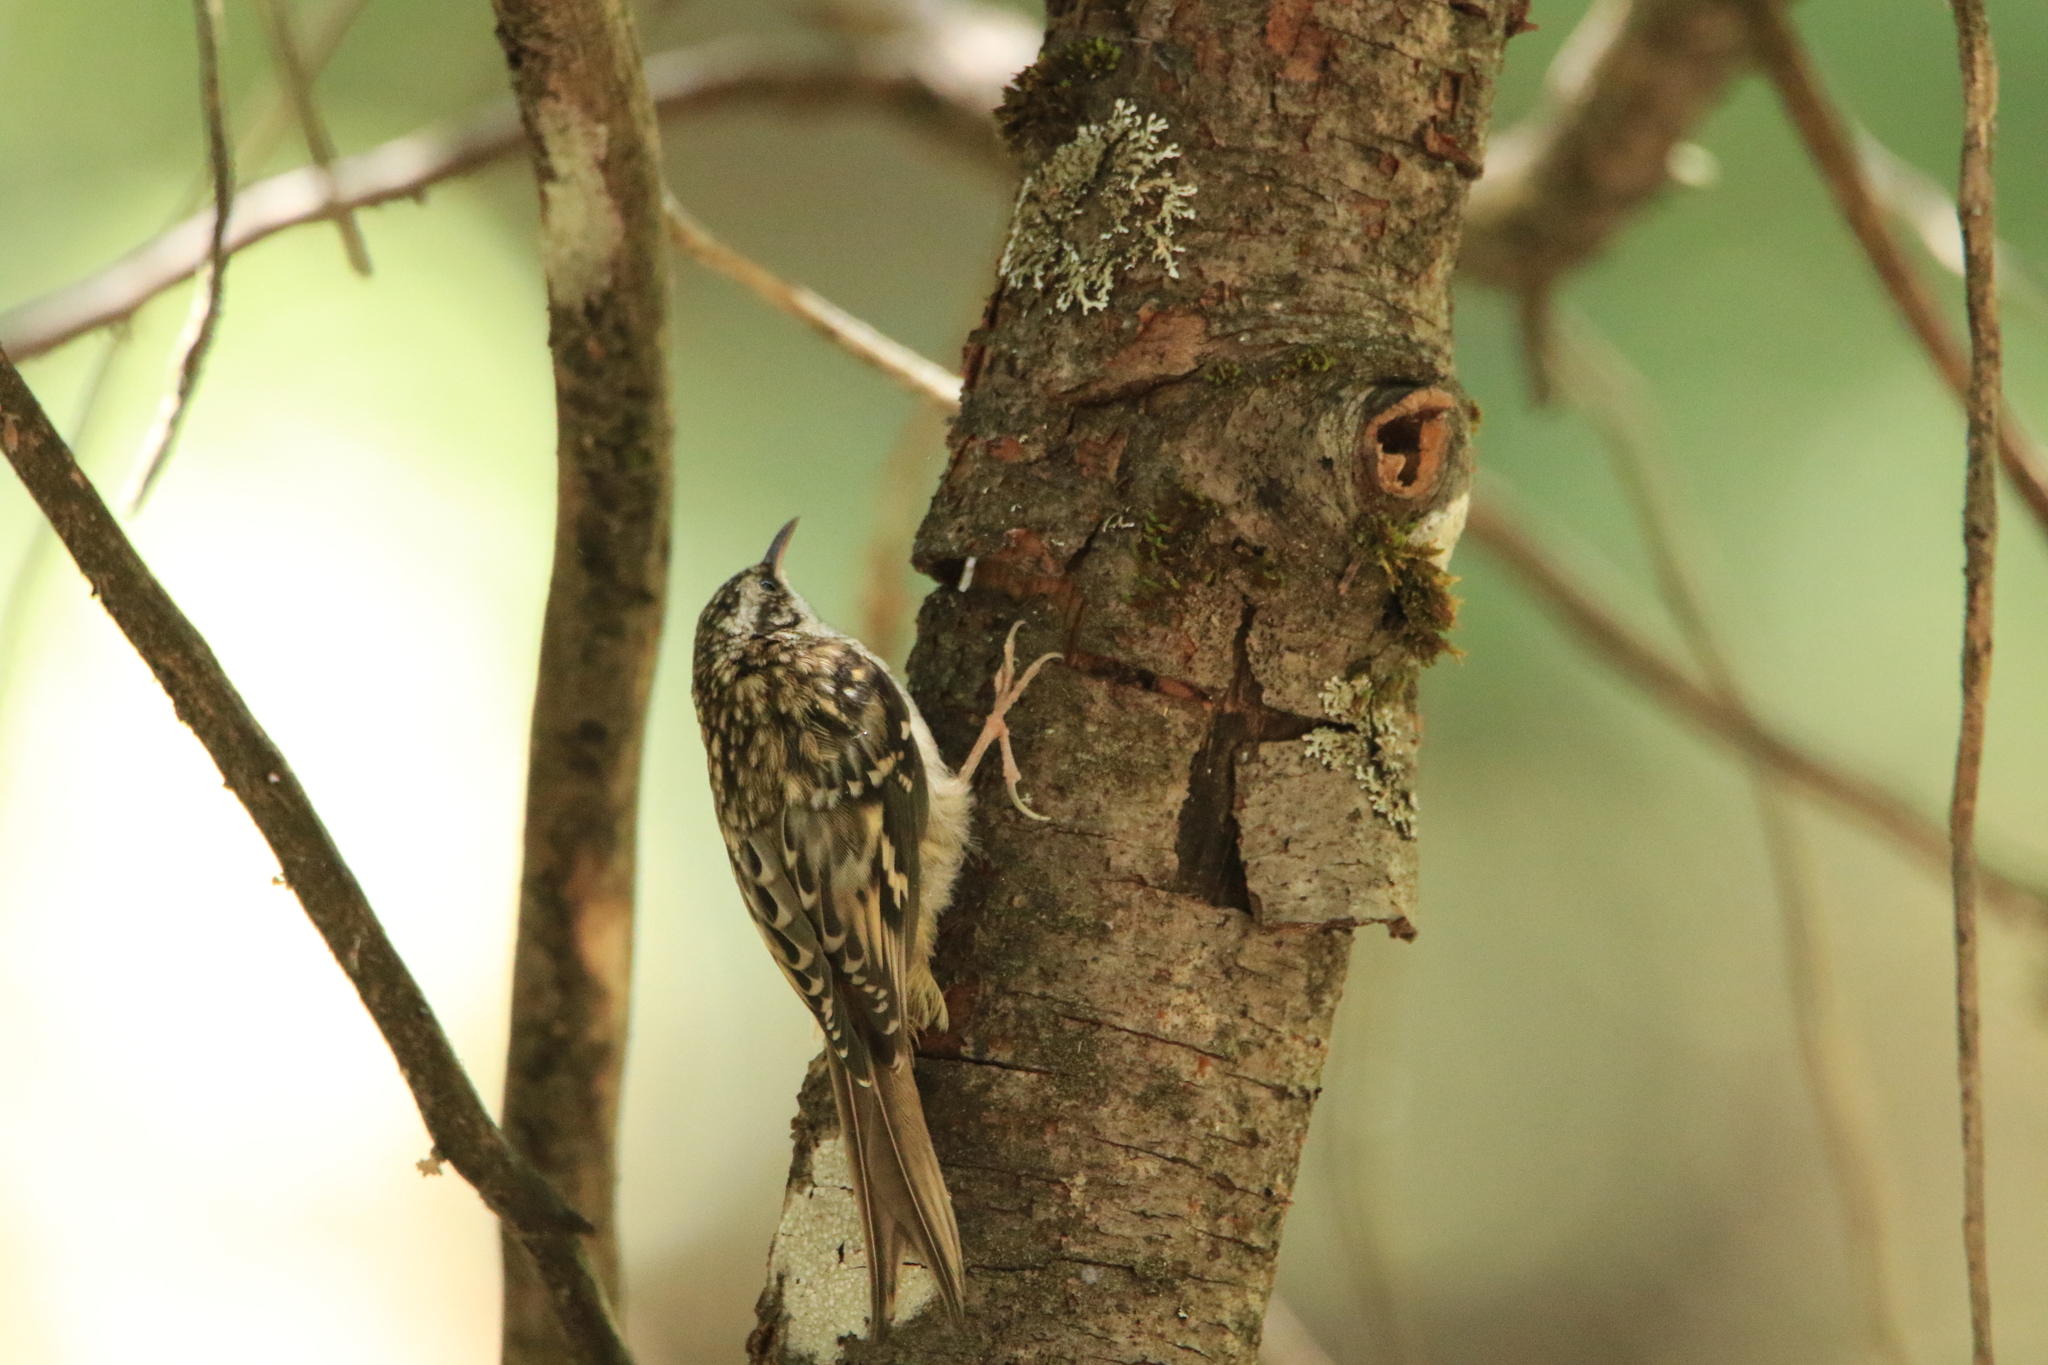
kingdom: Animalia
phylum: Chordata
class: Aves
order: Passeriformes
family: Certhiidae
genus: Certhia
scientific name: Certhia americana
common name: Brown creeper
